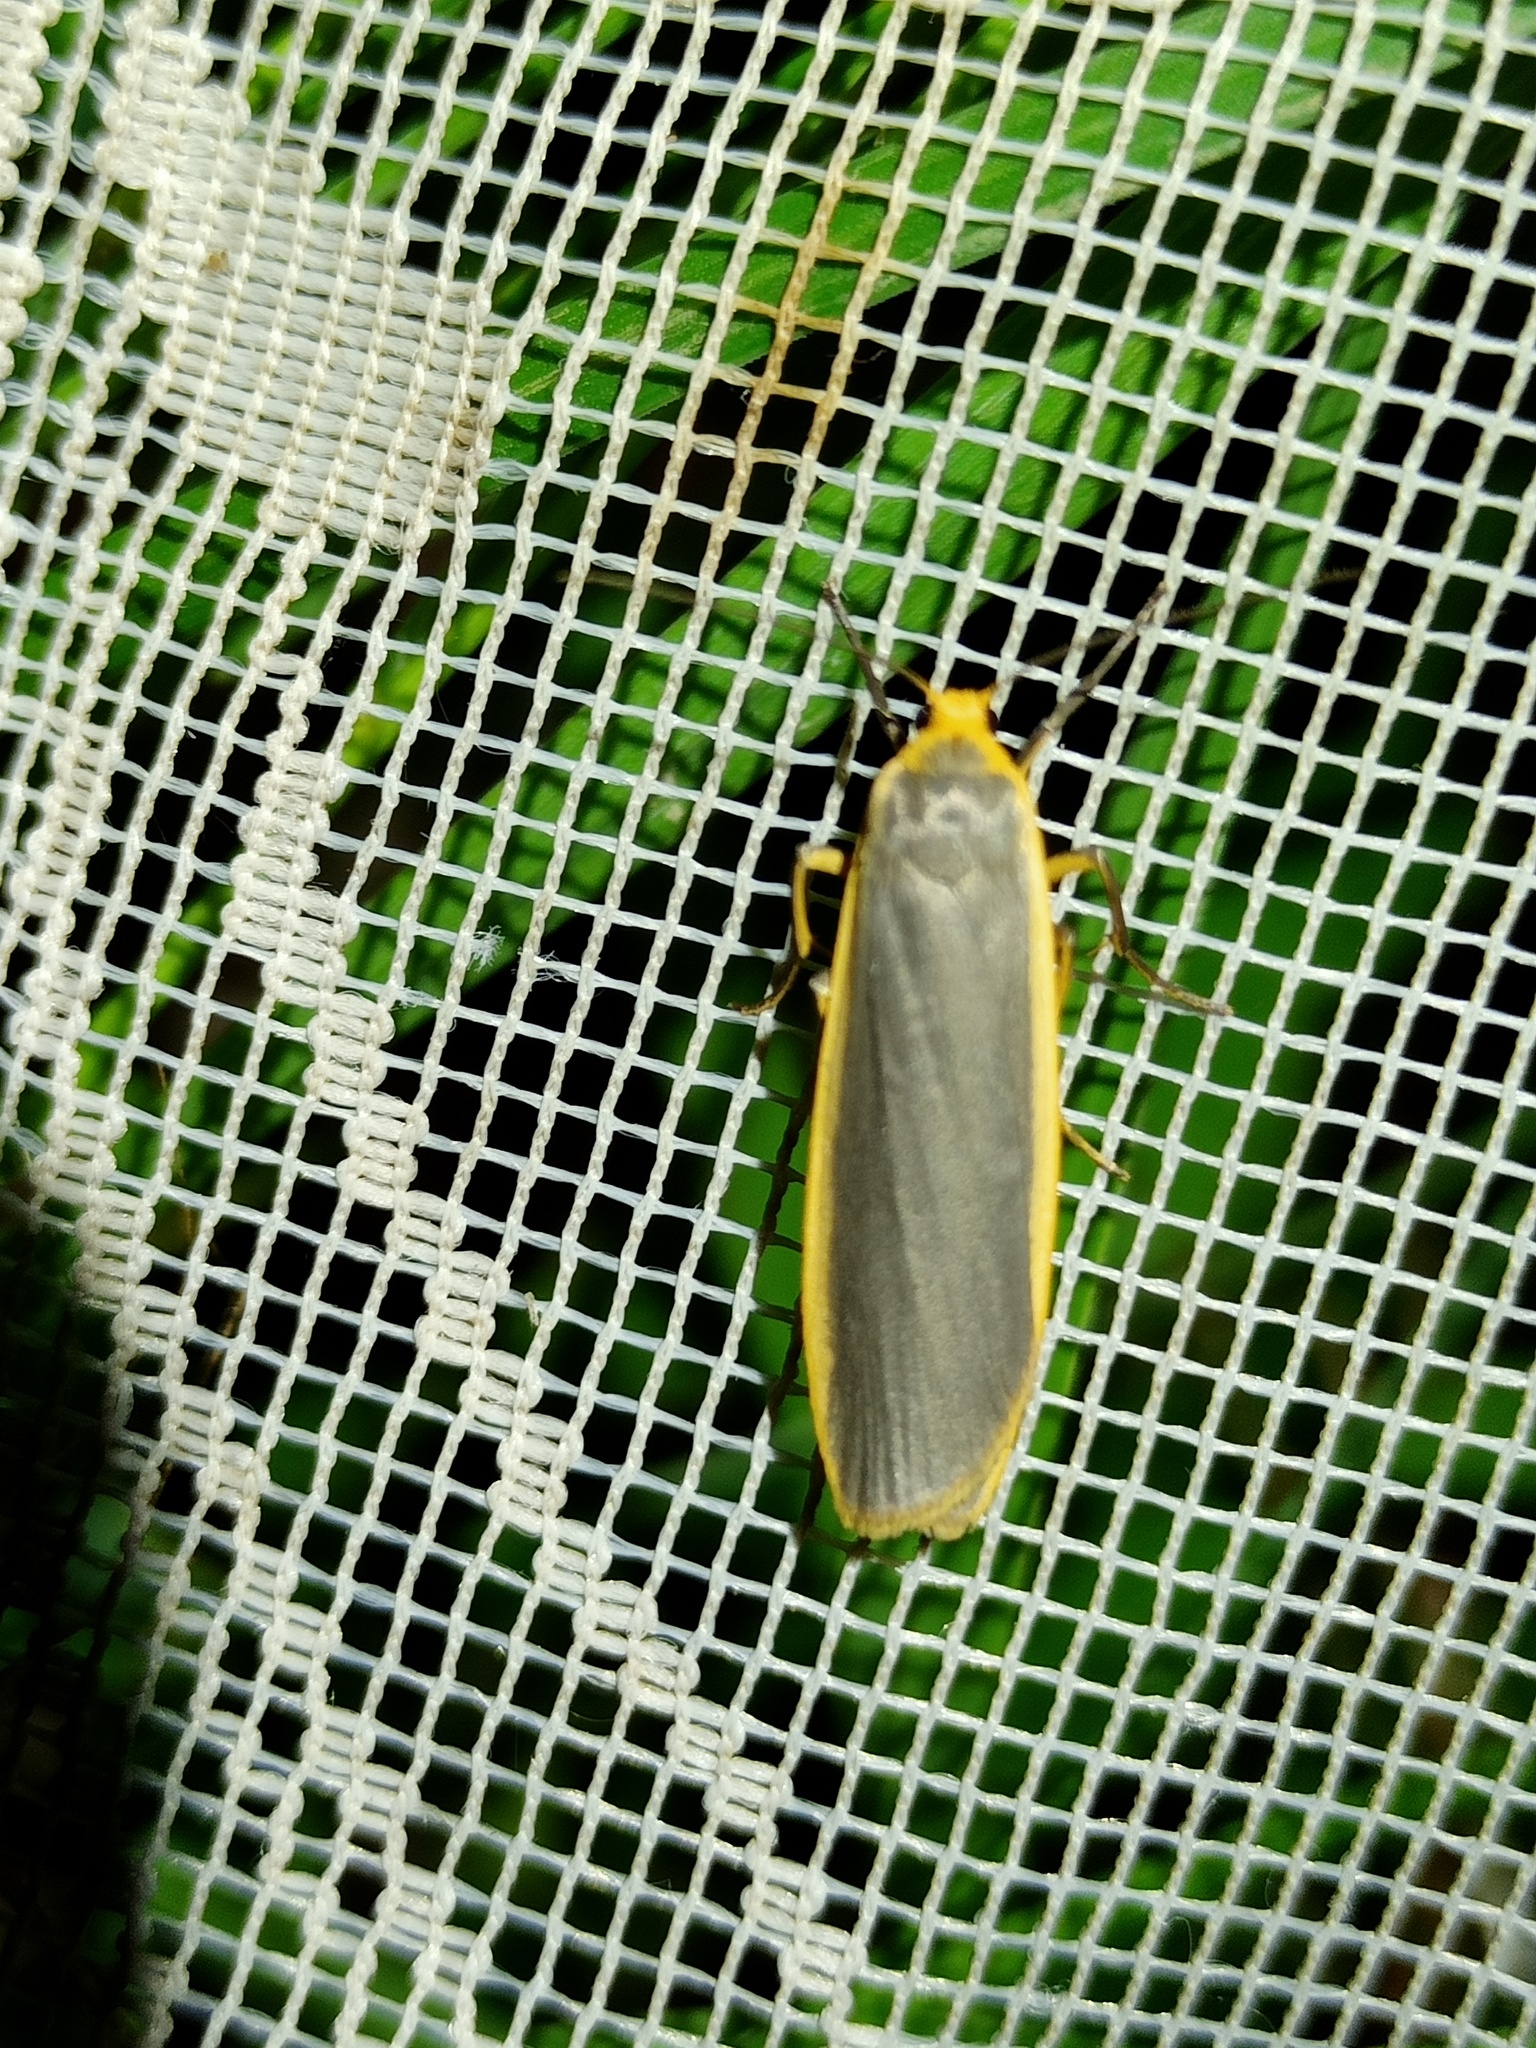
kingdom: Animalia
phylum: Arthropoda
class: Insecta
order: Lepidoptera
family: Erebidae
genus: Nyea
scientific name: Nyea lurideola
